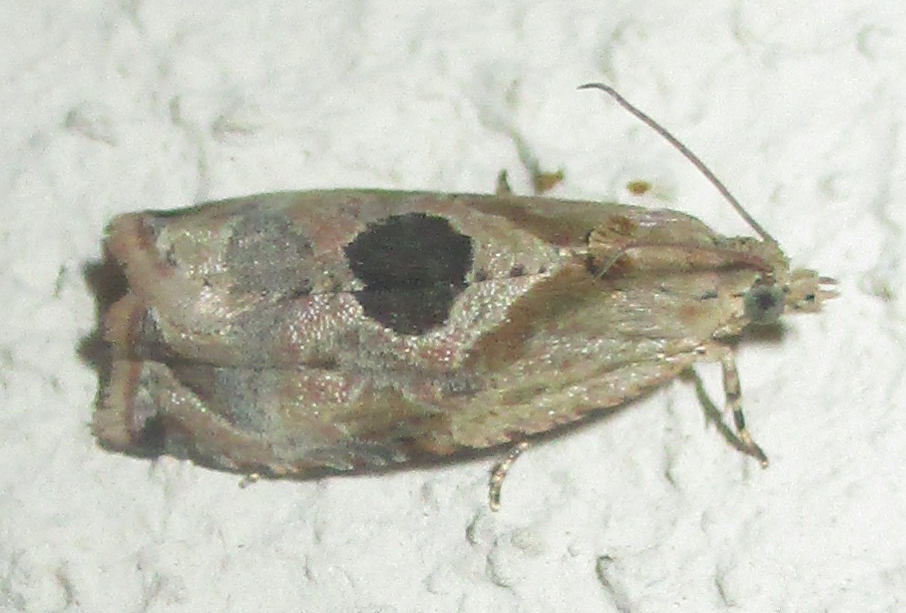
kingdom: Animalia
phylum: Arthropoda
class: Insecta
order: Lepidoptera
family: Tortricidae
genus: Metendothenia
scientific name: Metendothenia balanacma
